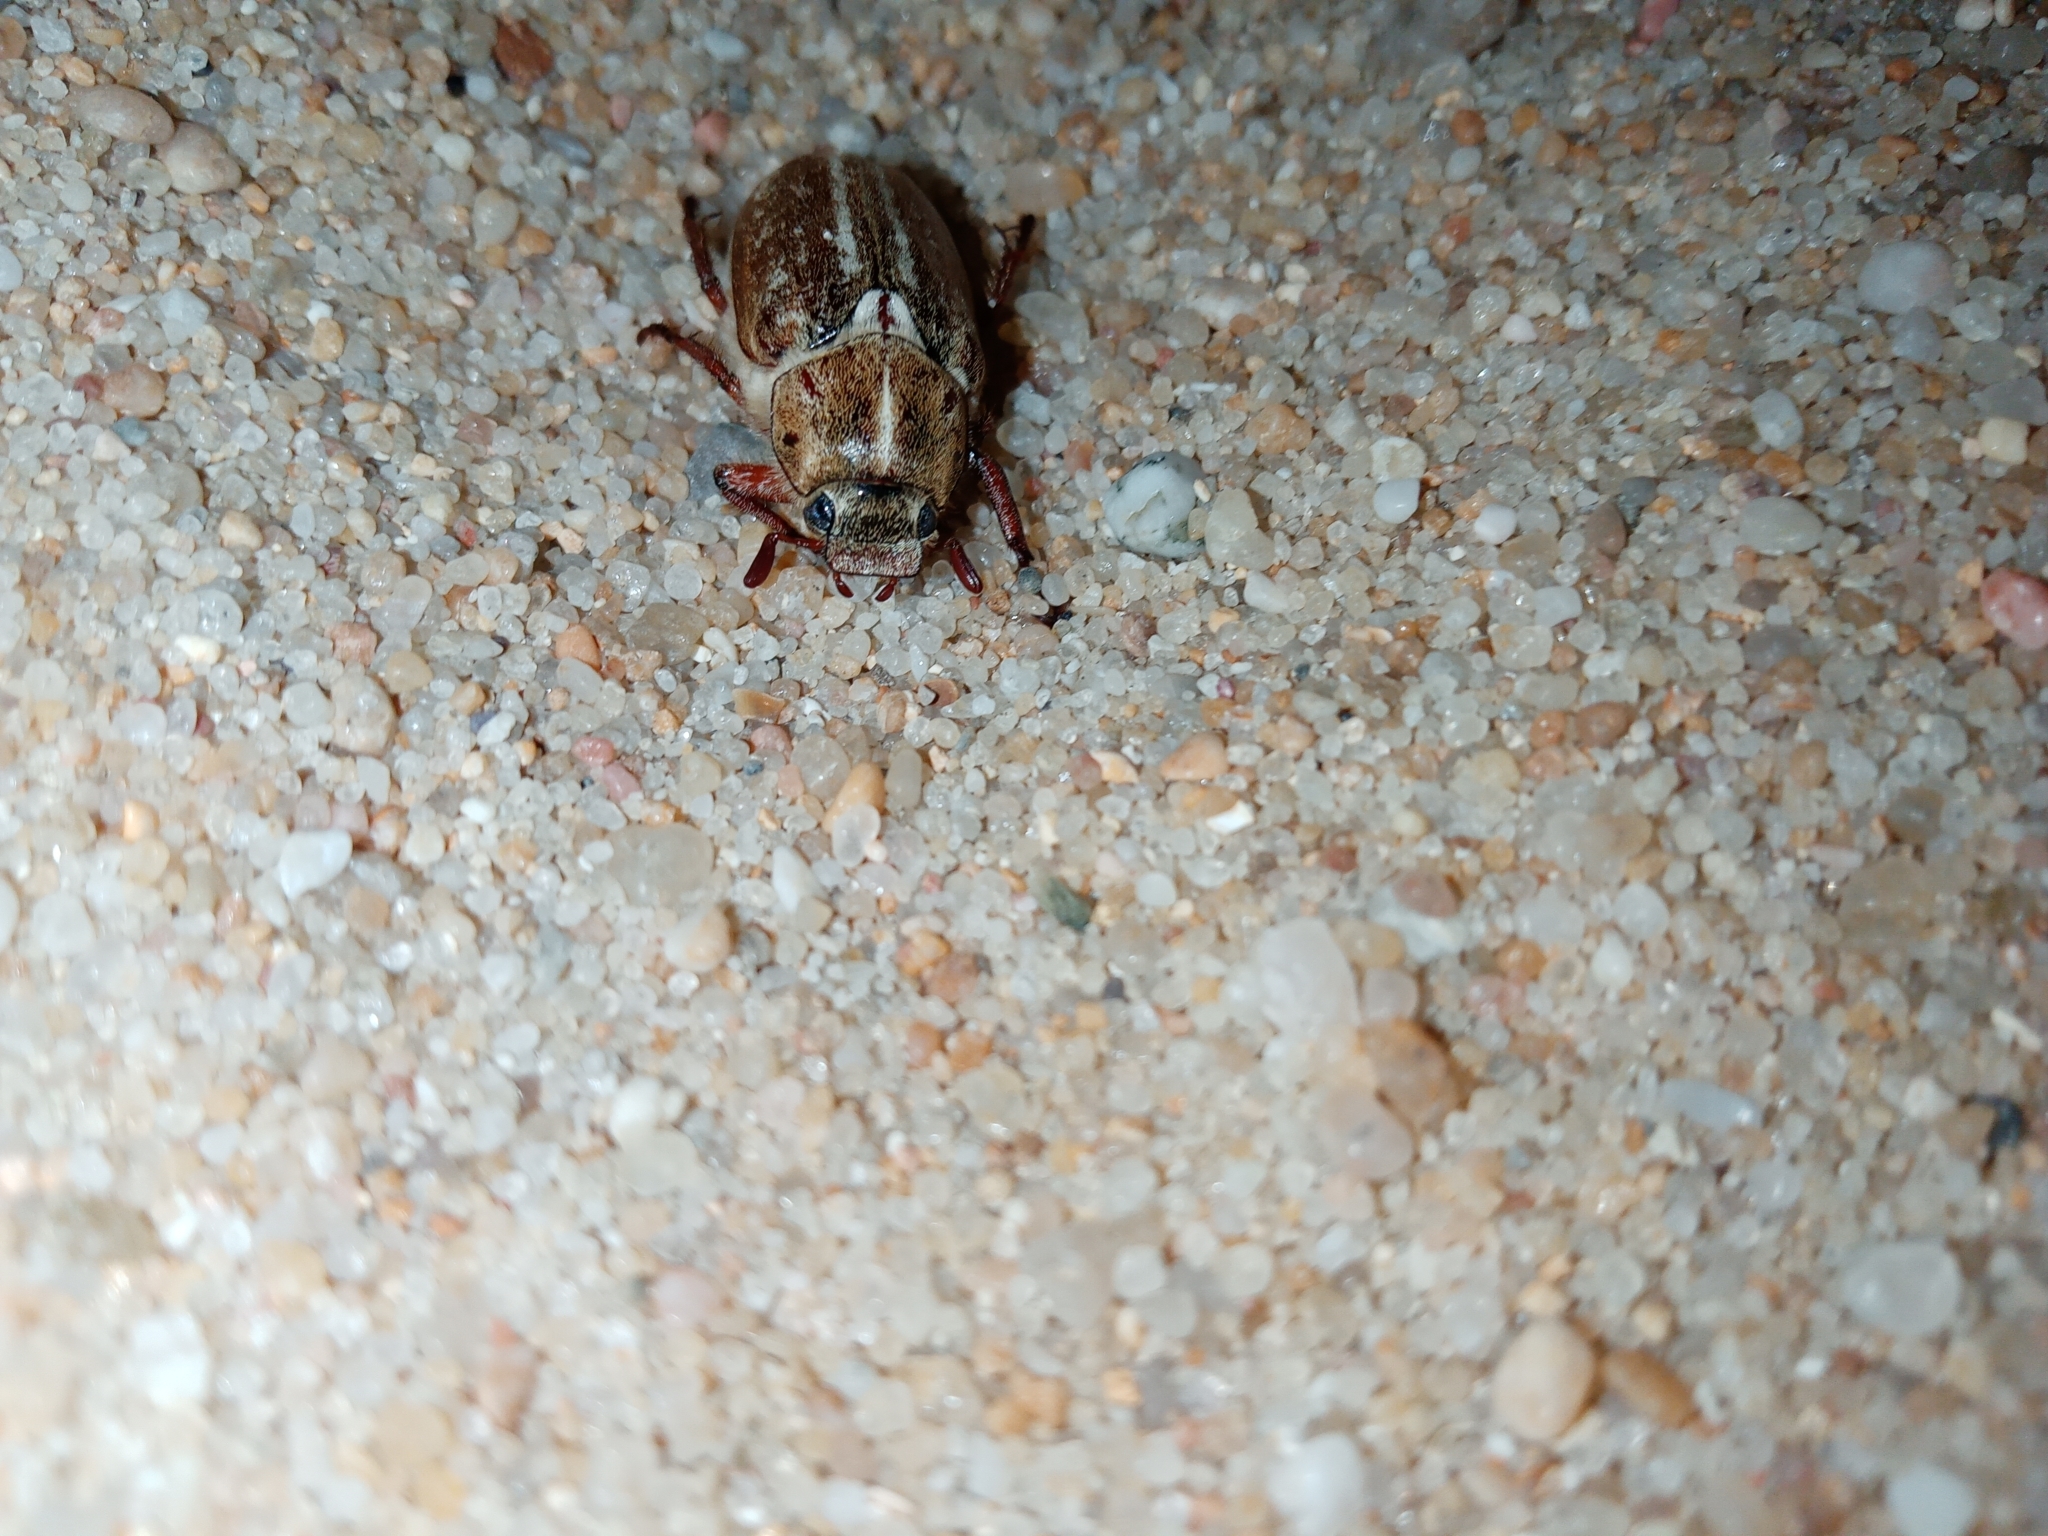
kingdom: Animalia
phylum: Arthropoda
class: Insecta
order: Coleoptera
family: Scarabaeidae
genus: Anoxia
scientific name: Anoxia australis
